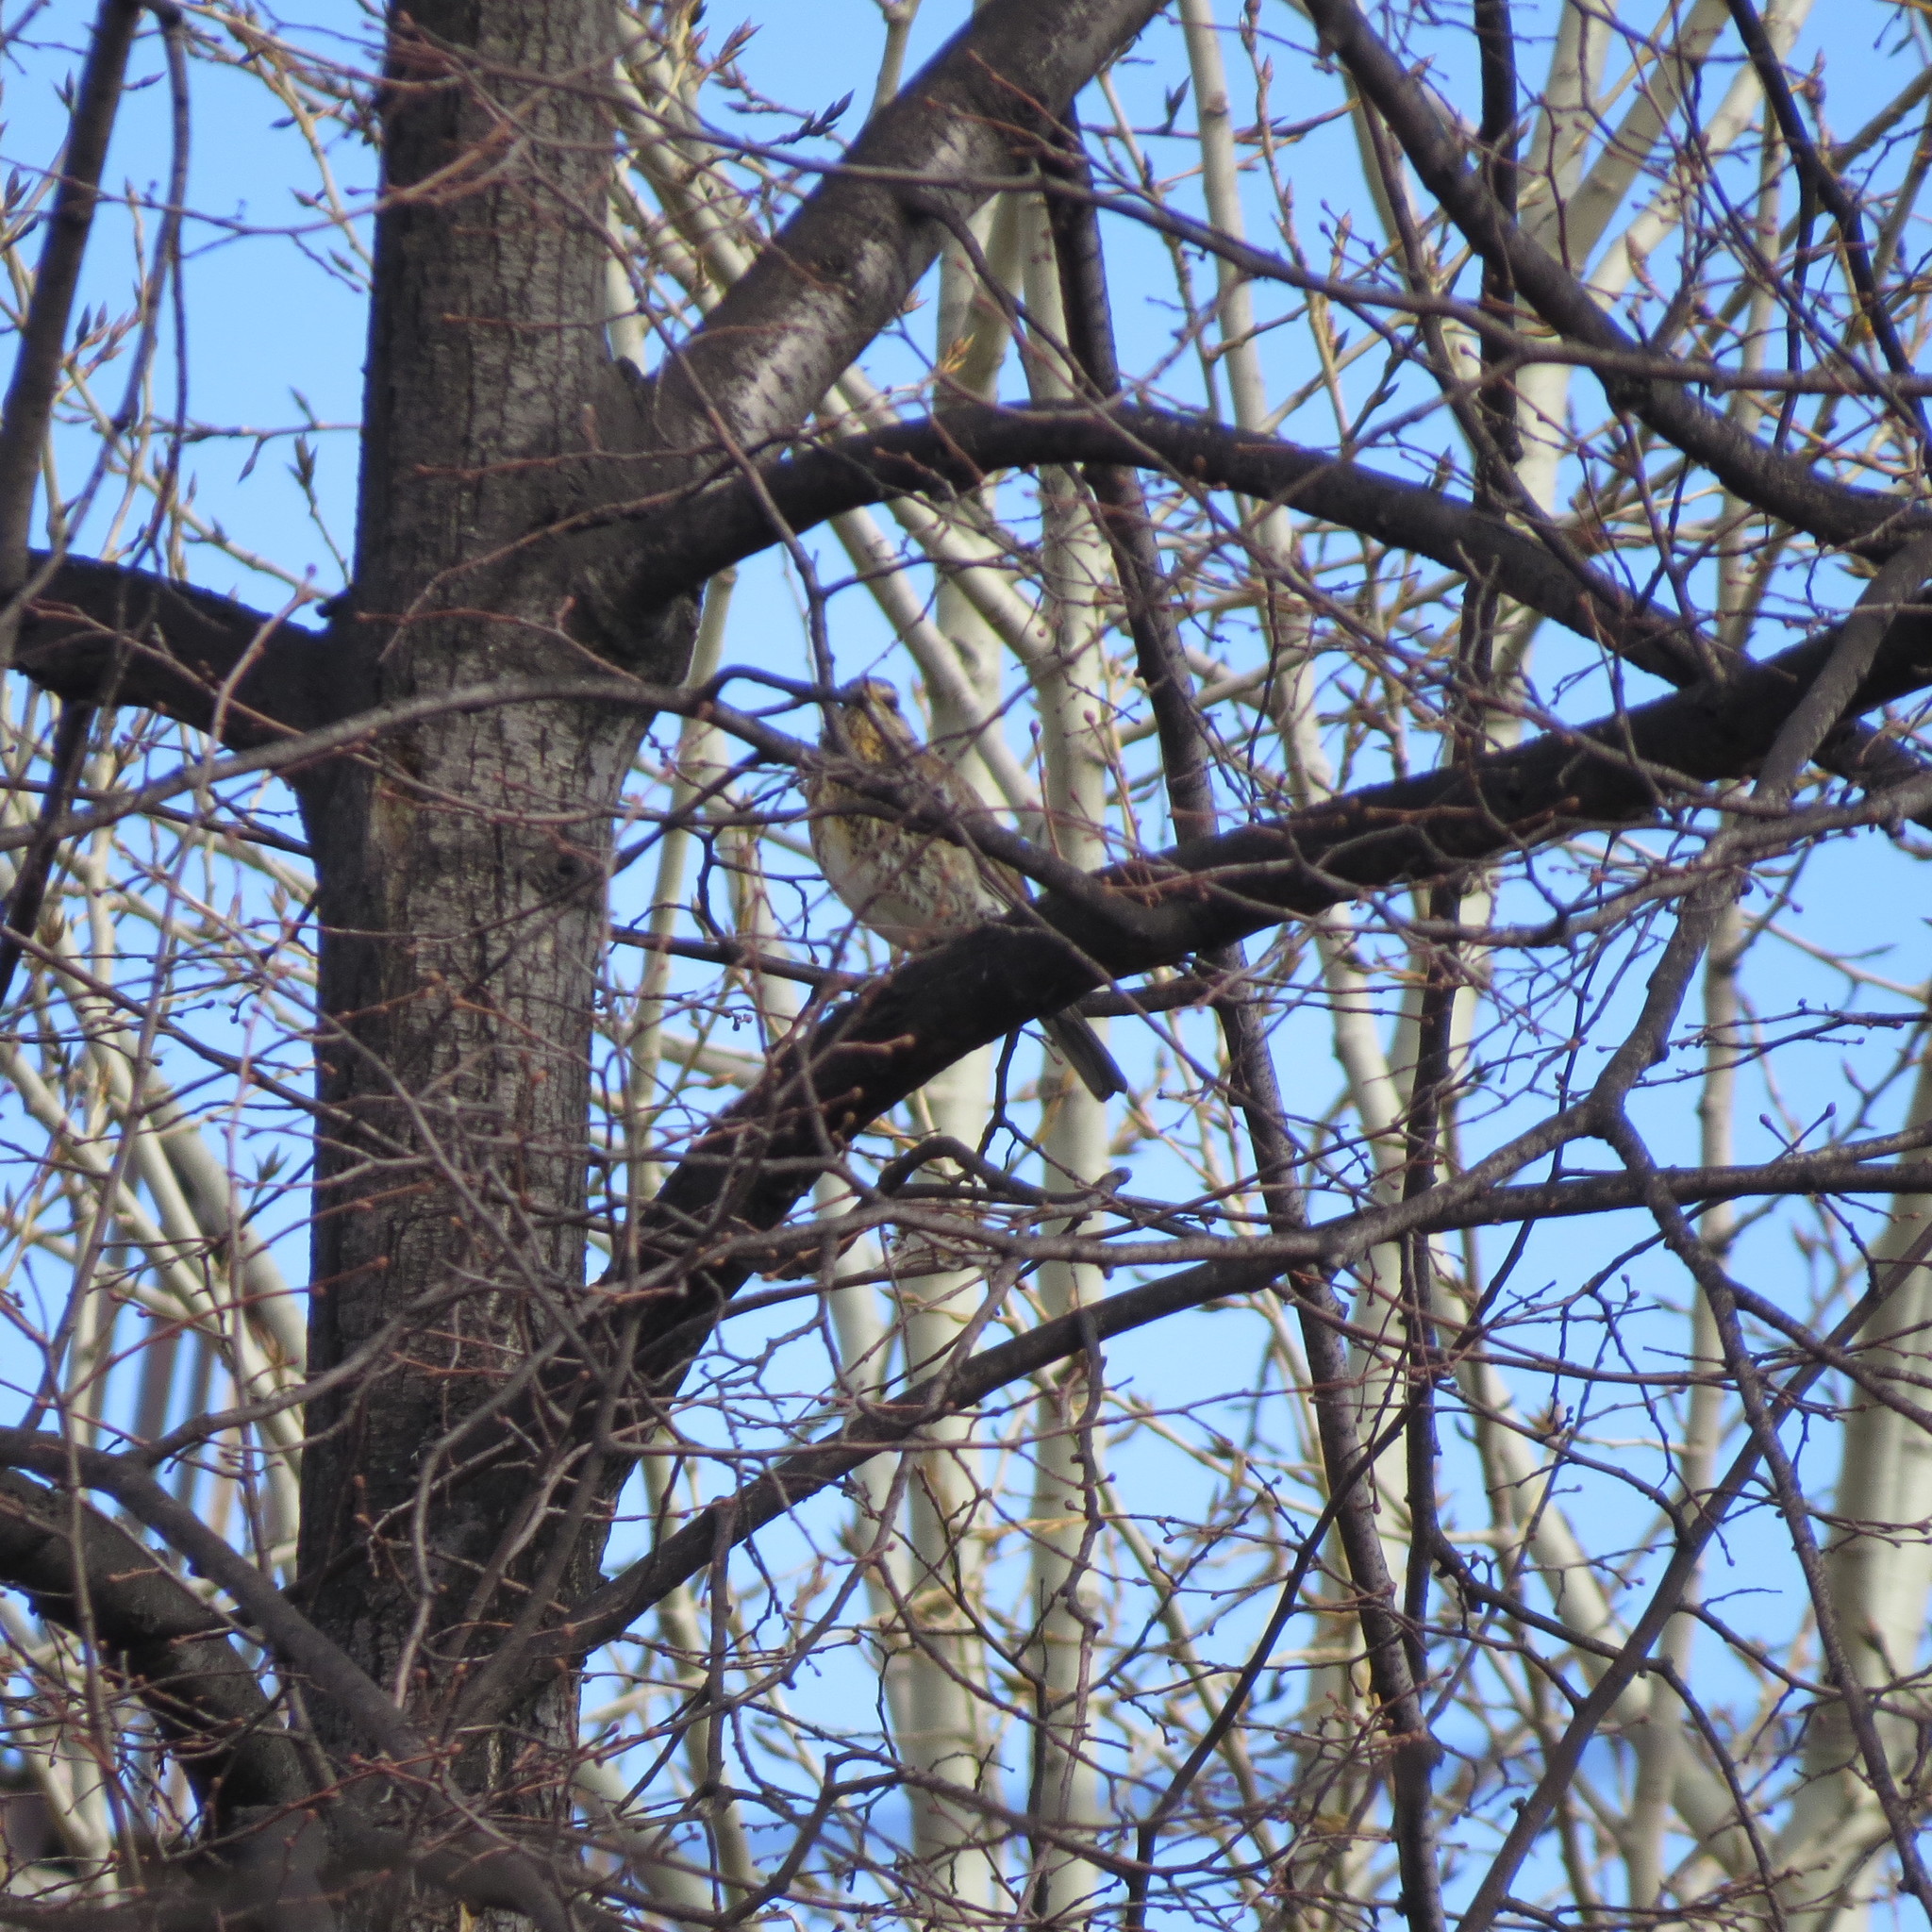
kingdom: Animalia
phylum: Chordata
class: Aves
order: Passeriformes
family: Turdidae
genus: Turdus
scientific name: Turdus pilaris
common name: Fieldfare
